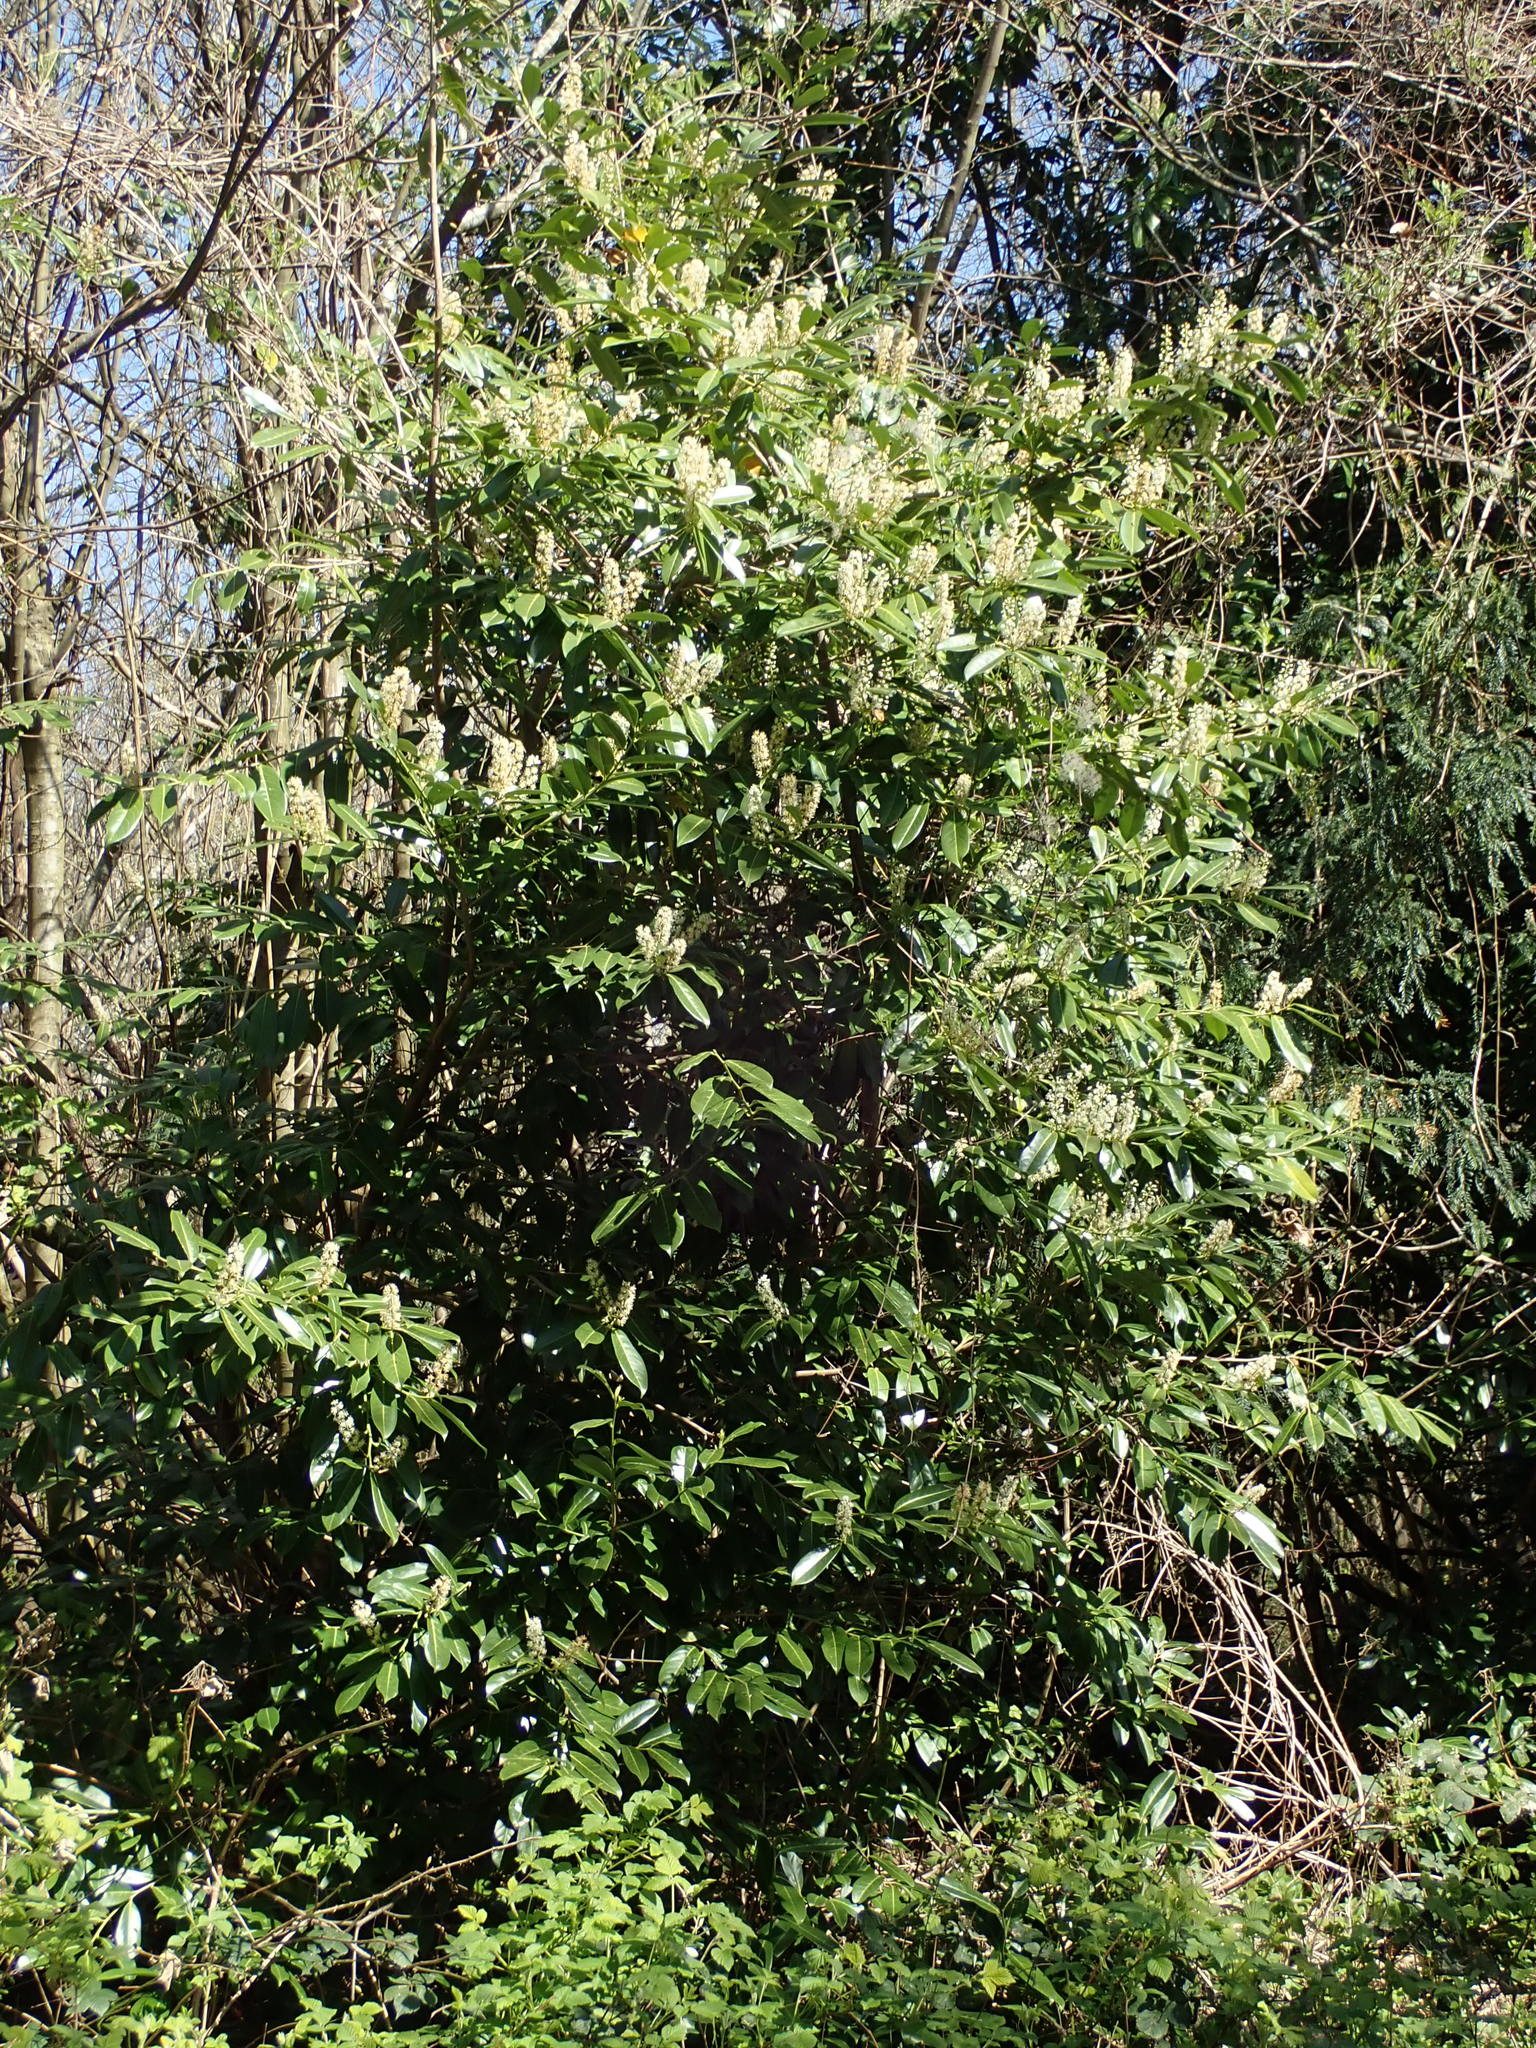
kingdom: Plantae
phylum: Tracheophyta
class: Magnoliopsida
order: Rosales
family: Rosaceae
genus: Prunus
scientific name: Prunus laurocerasus
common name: Cherry laurel
